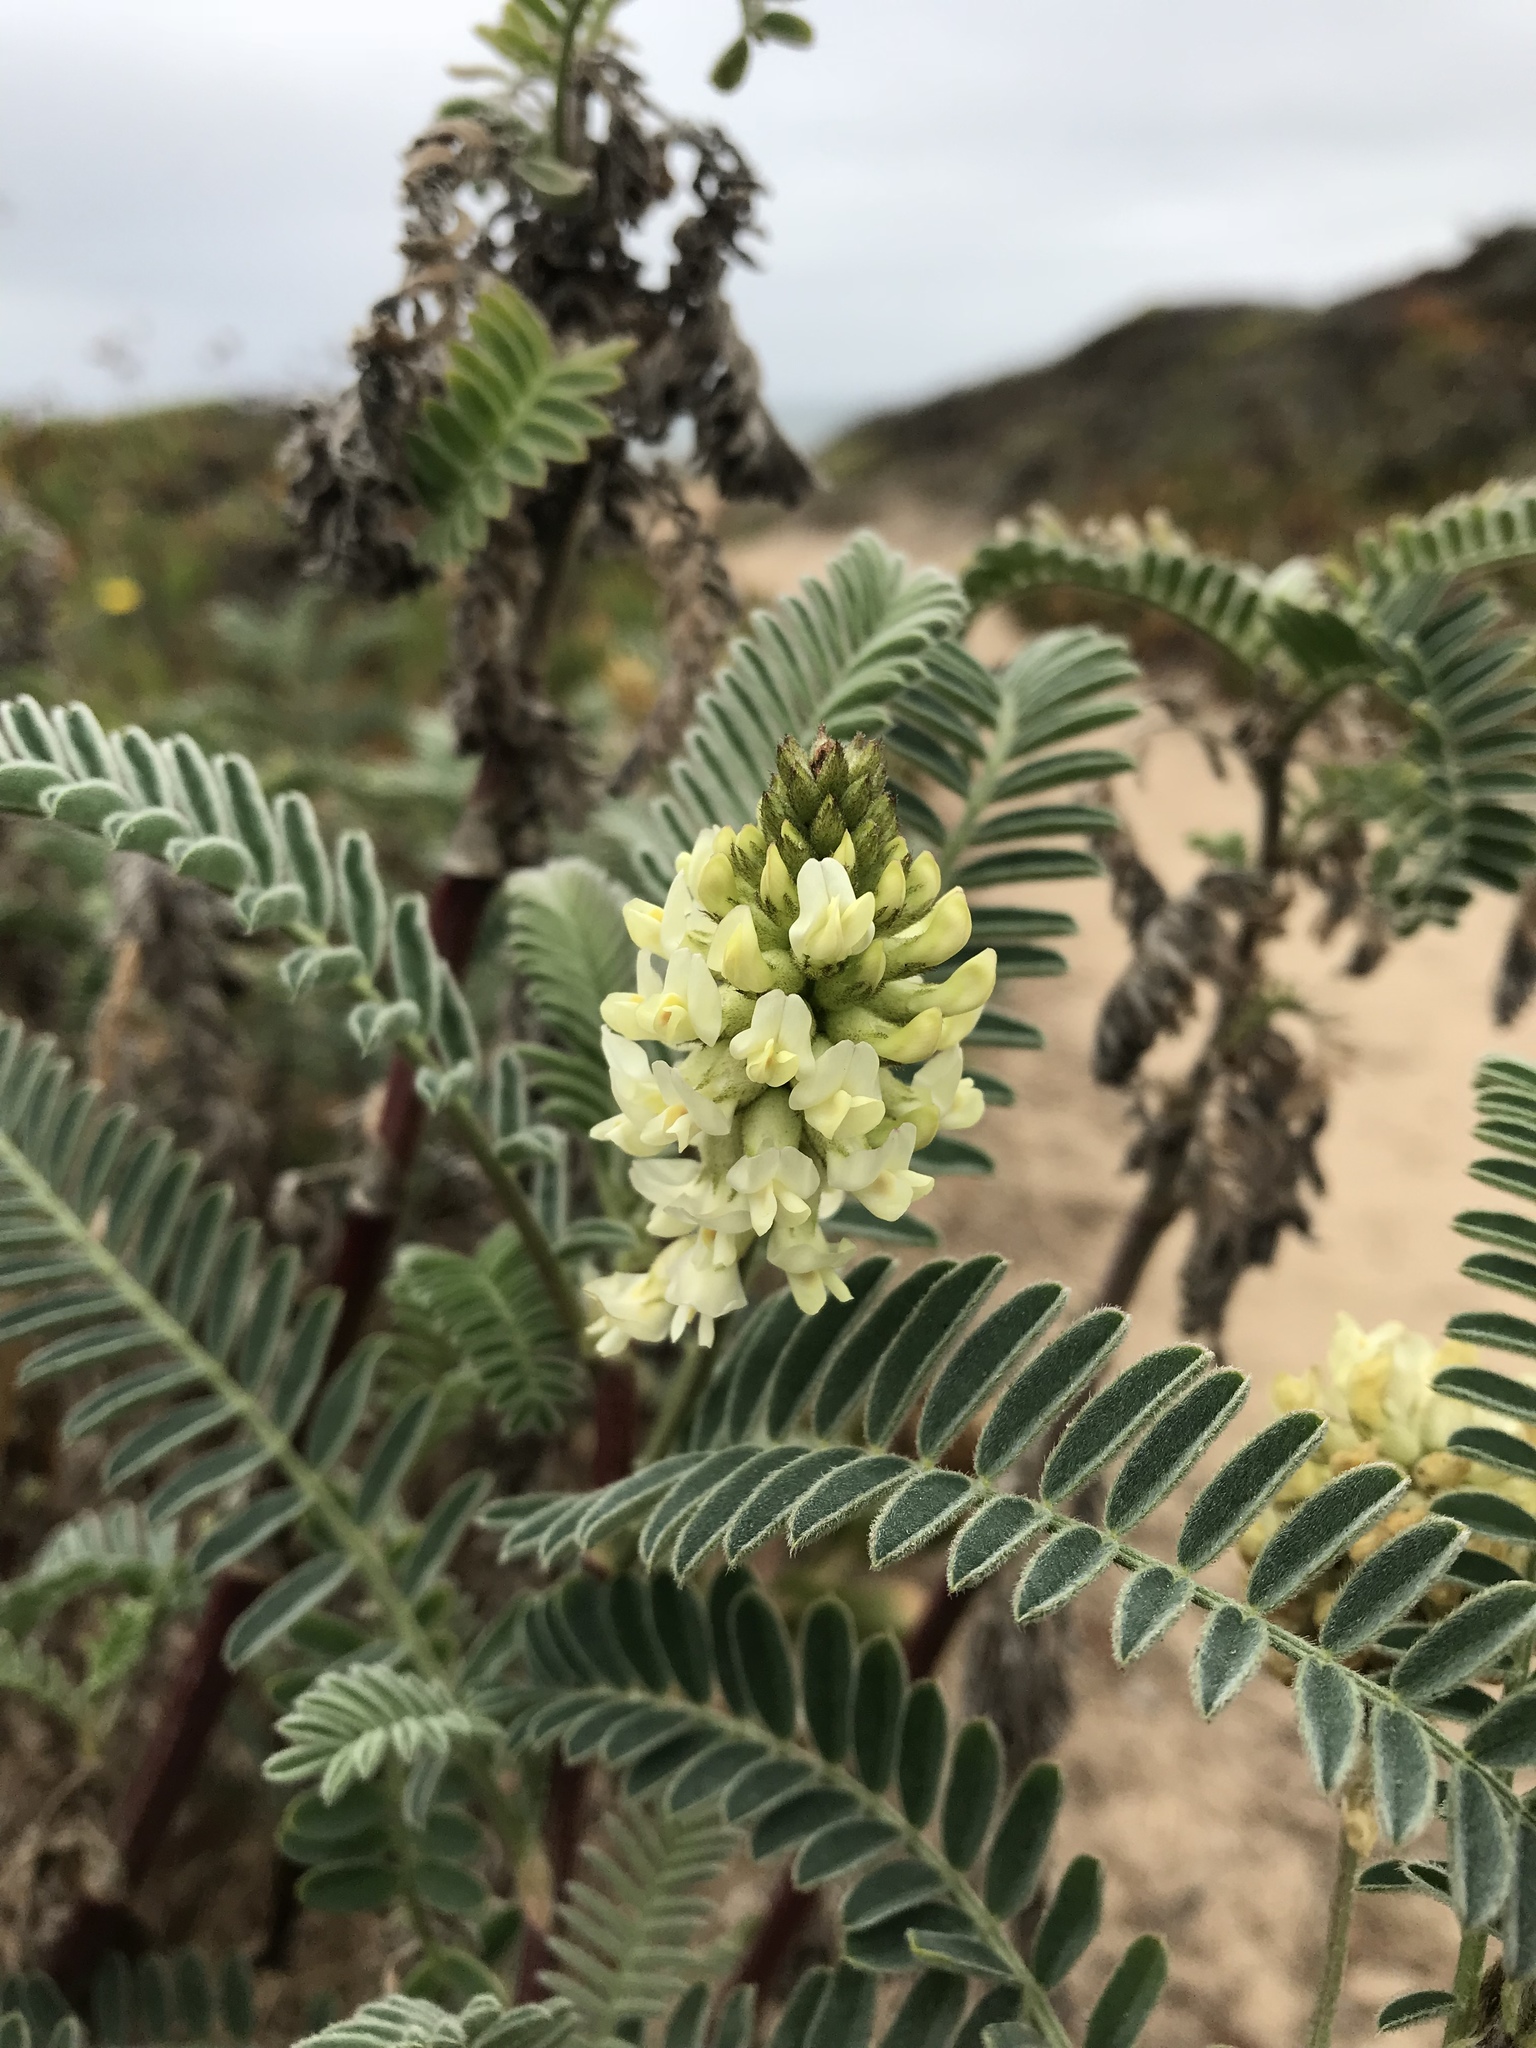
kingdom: Plantae
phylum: Tracheophyta
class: Magnoliopsida
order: Fabales
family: Fabaceae
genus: Astragalus
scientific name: Astragalus pycnostachyus
